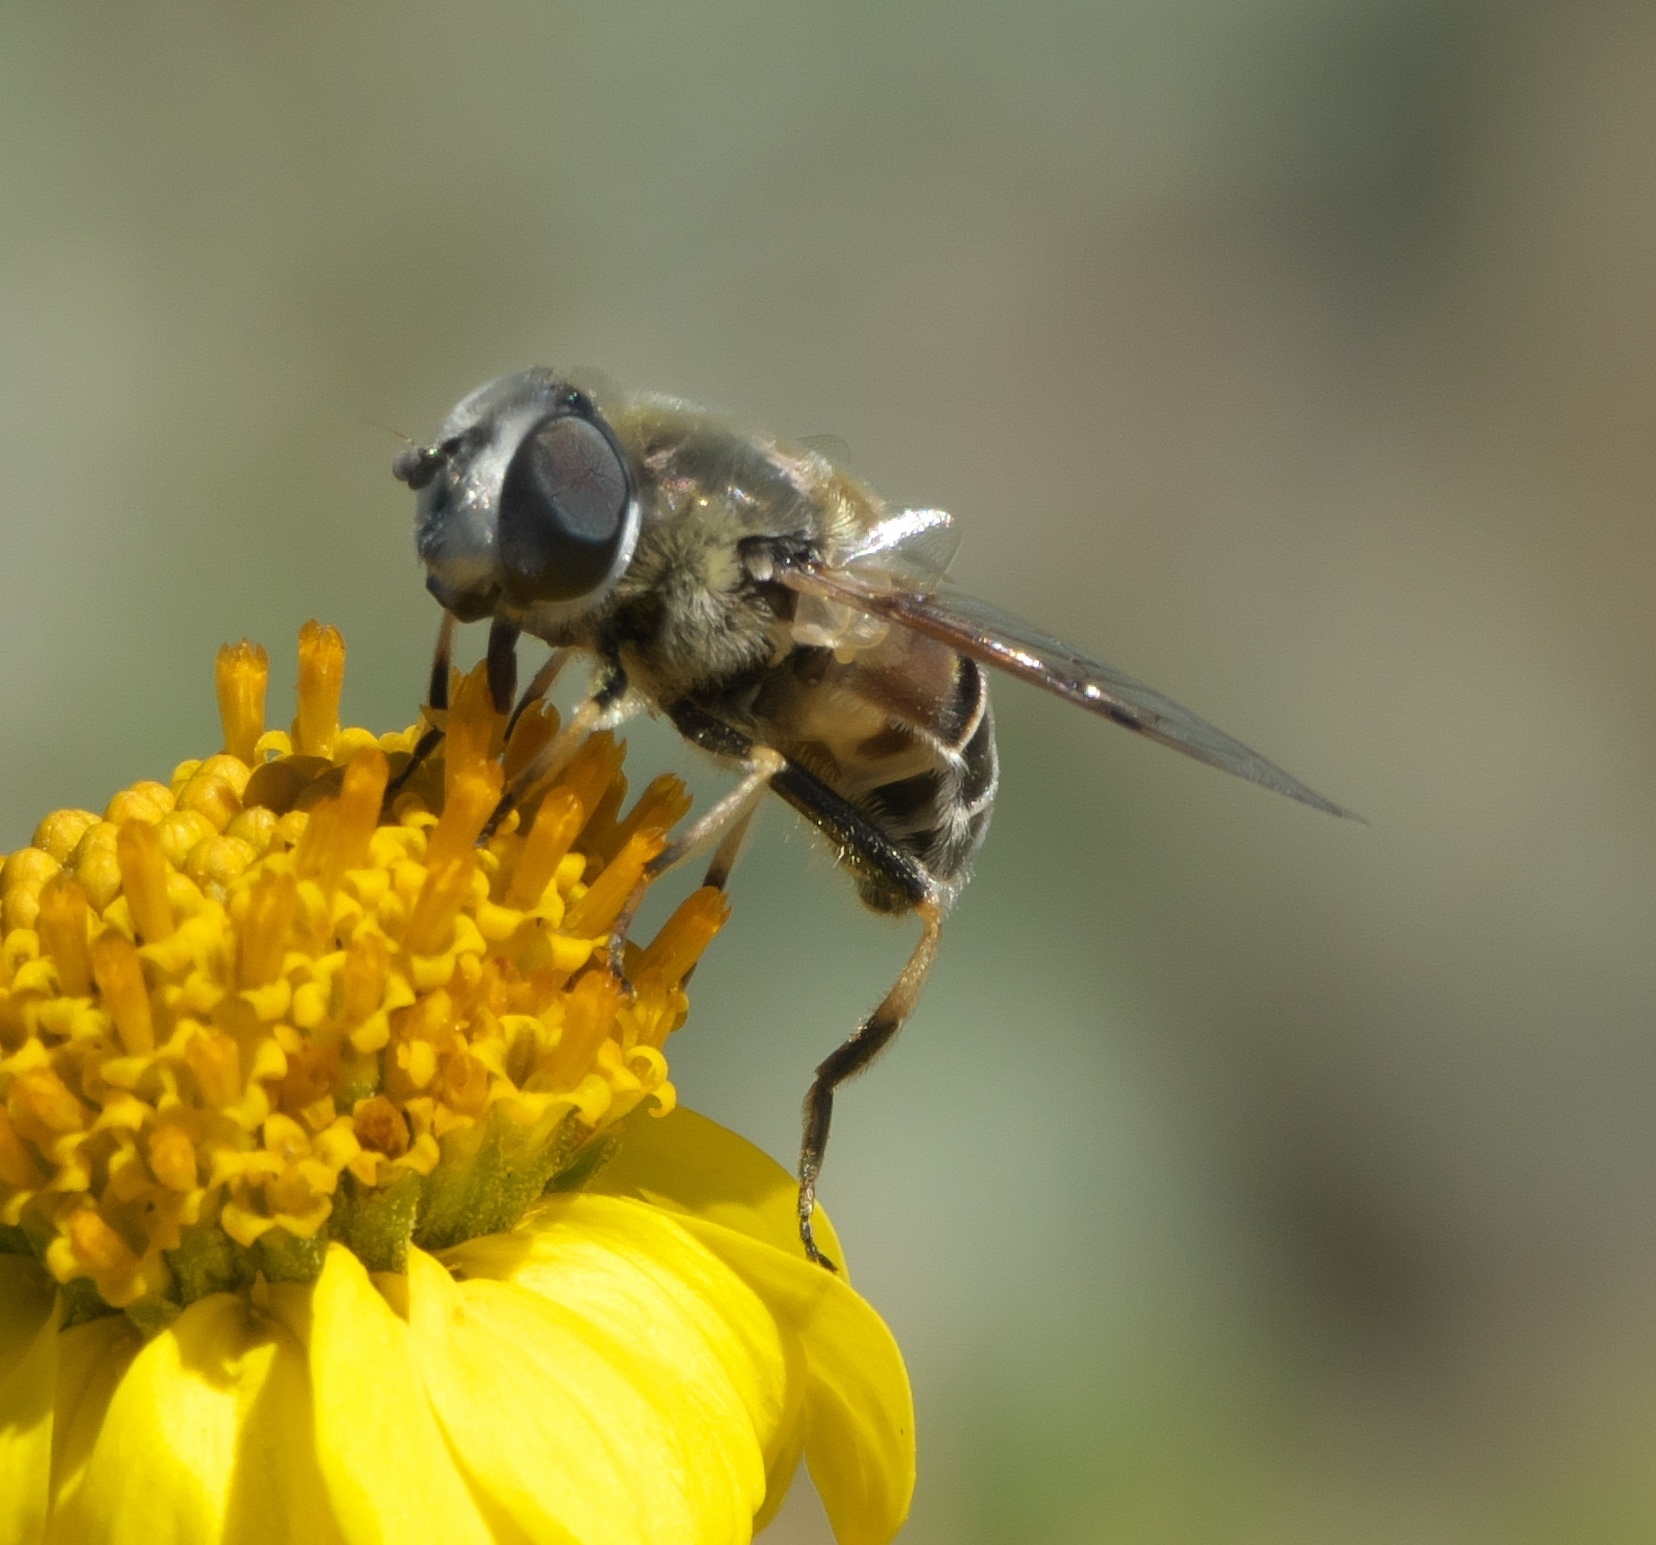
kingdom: Animalia
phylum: Arthropoda
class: Insecta
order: Diptera
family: Syrphidae
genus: Eristalis
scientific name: Eristalis stipator
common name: Yellow-shouldered drone fly
